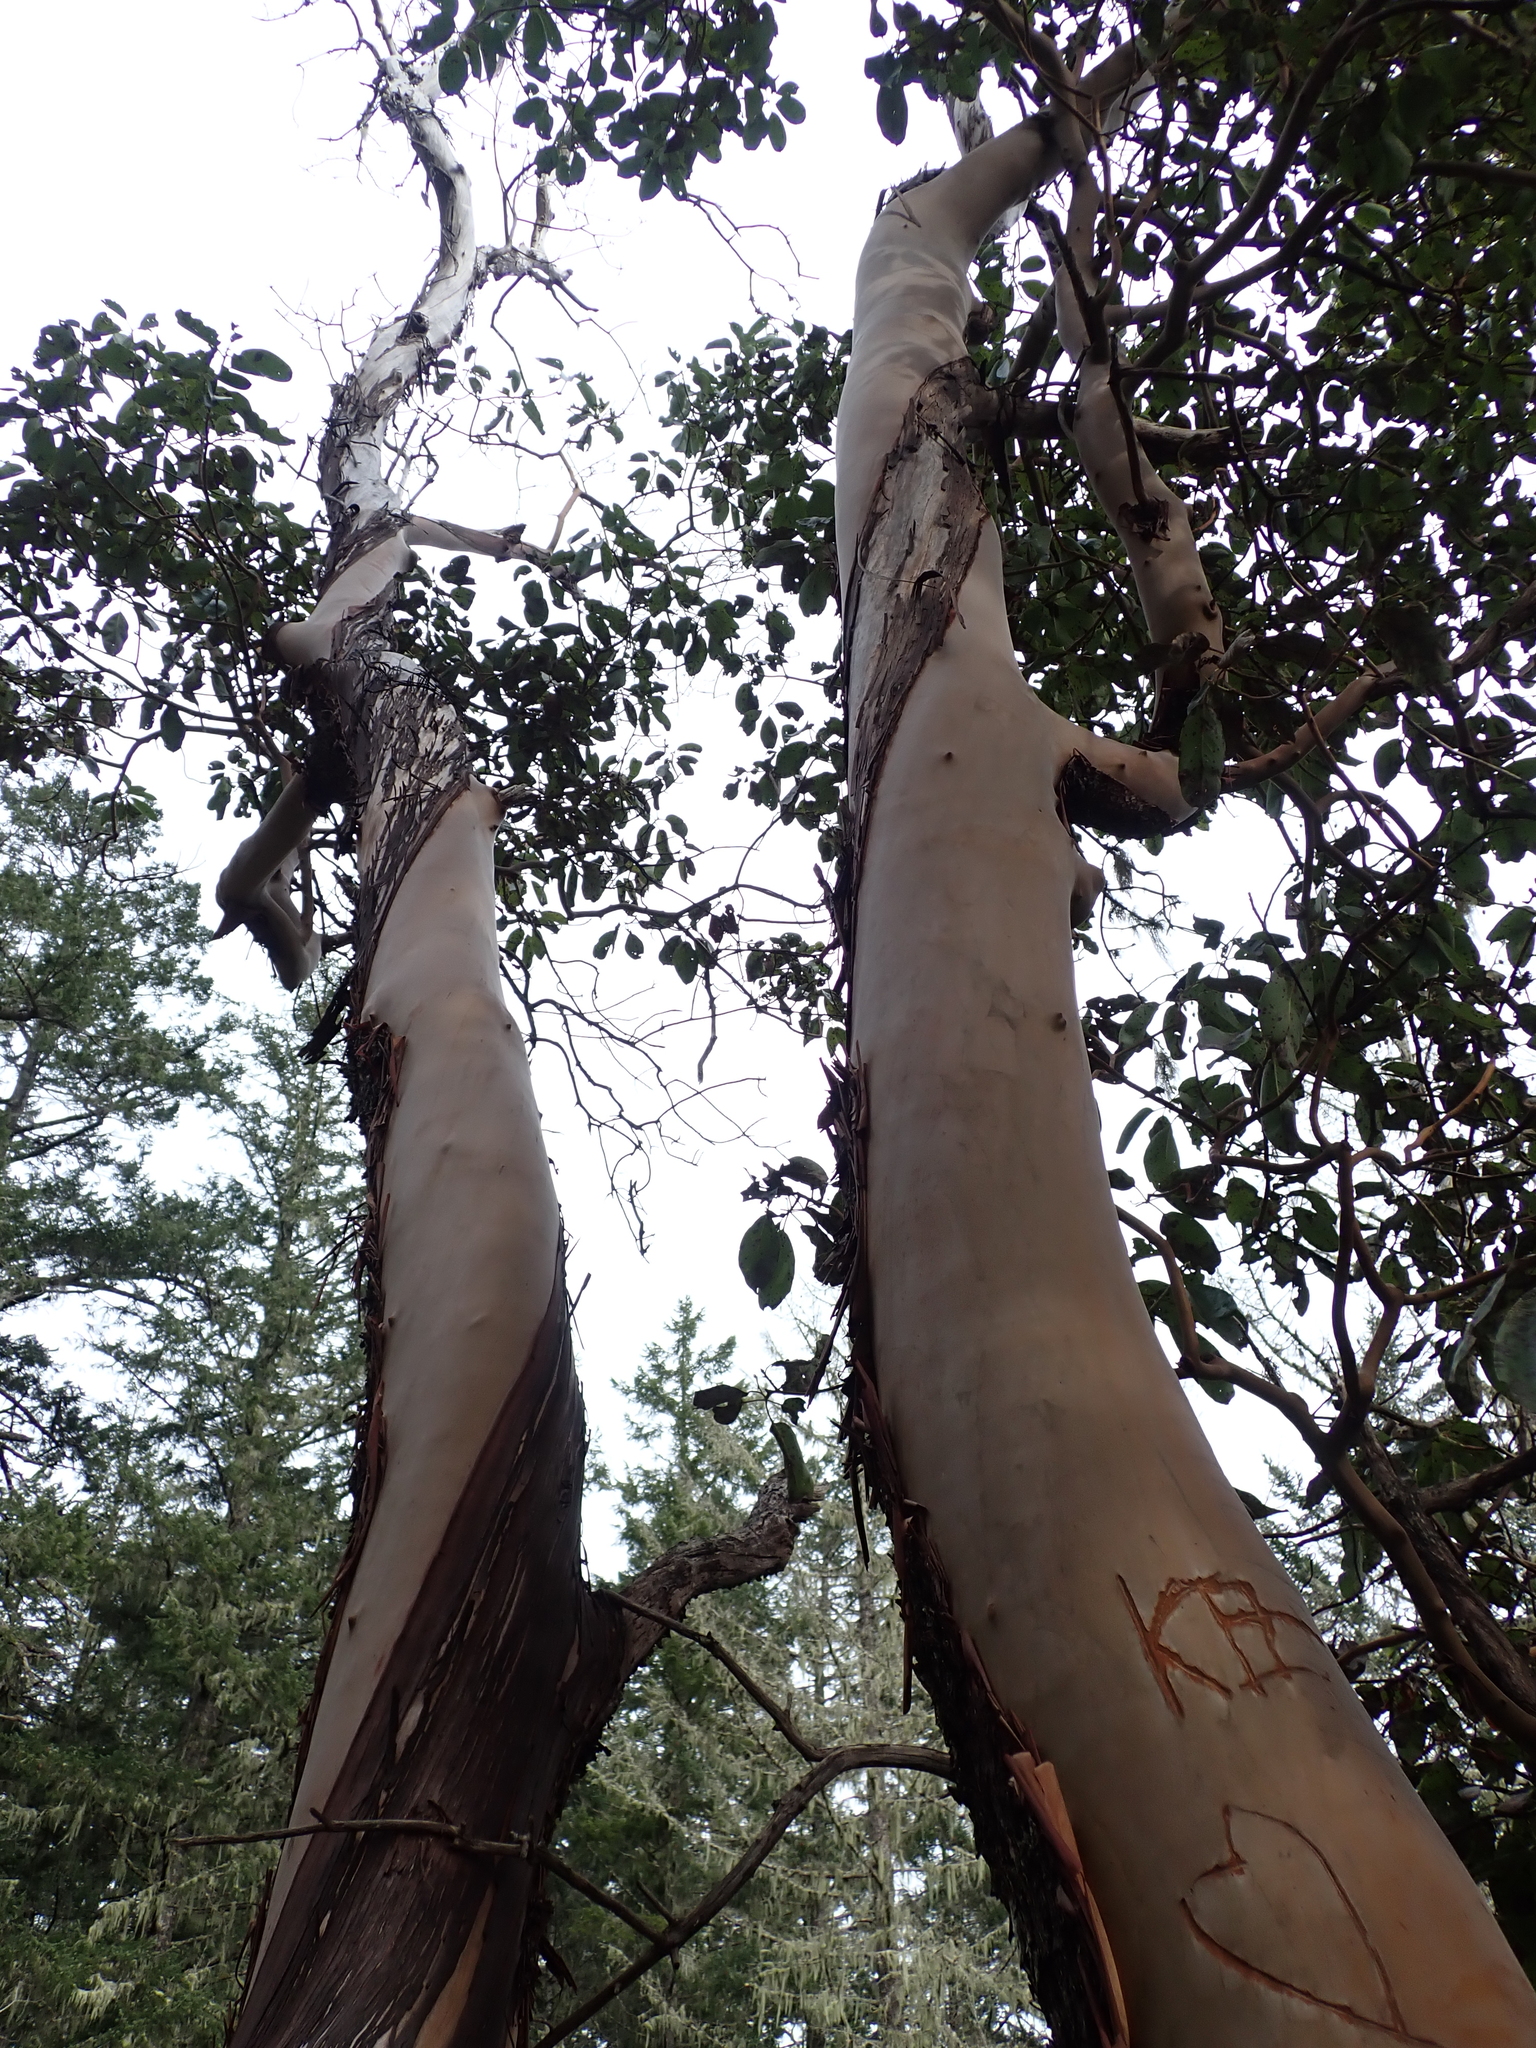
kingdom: Plantae
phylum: Tracheophyta
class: Magnoliopsida
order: Ericales
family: Ericaceae
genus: Arbutus
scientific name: Arbutus menziesii
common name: Pacific madrone
